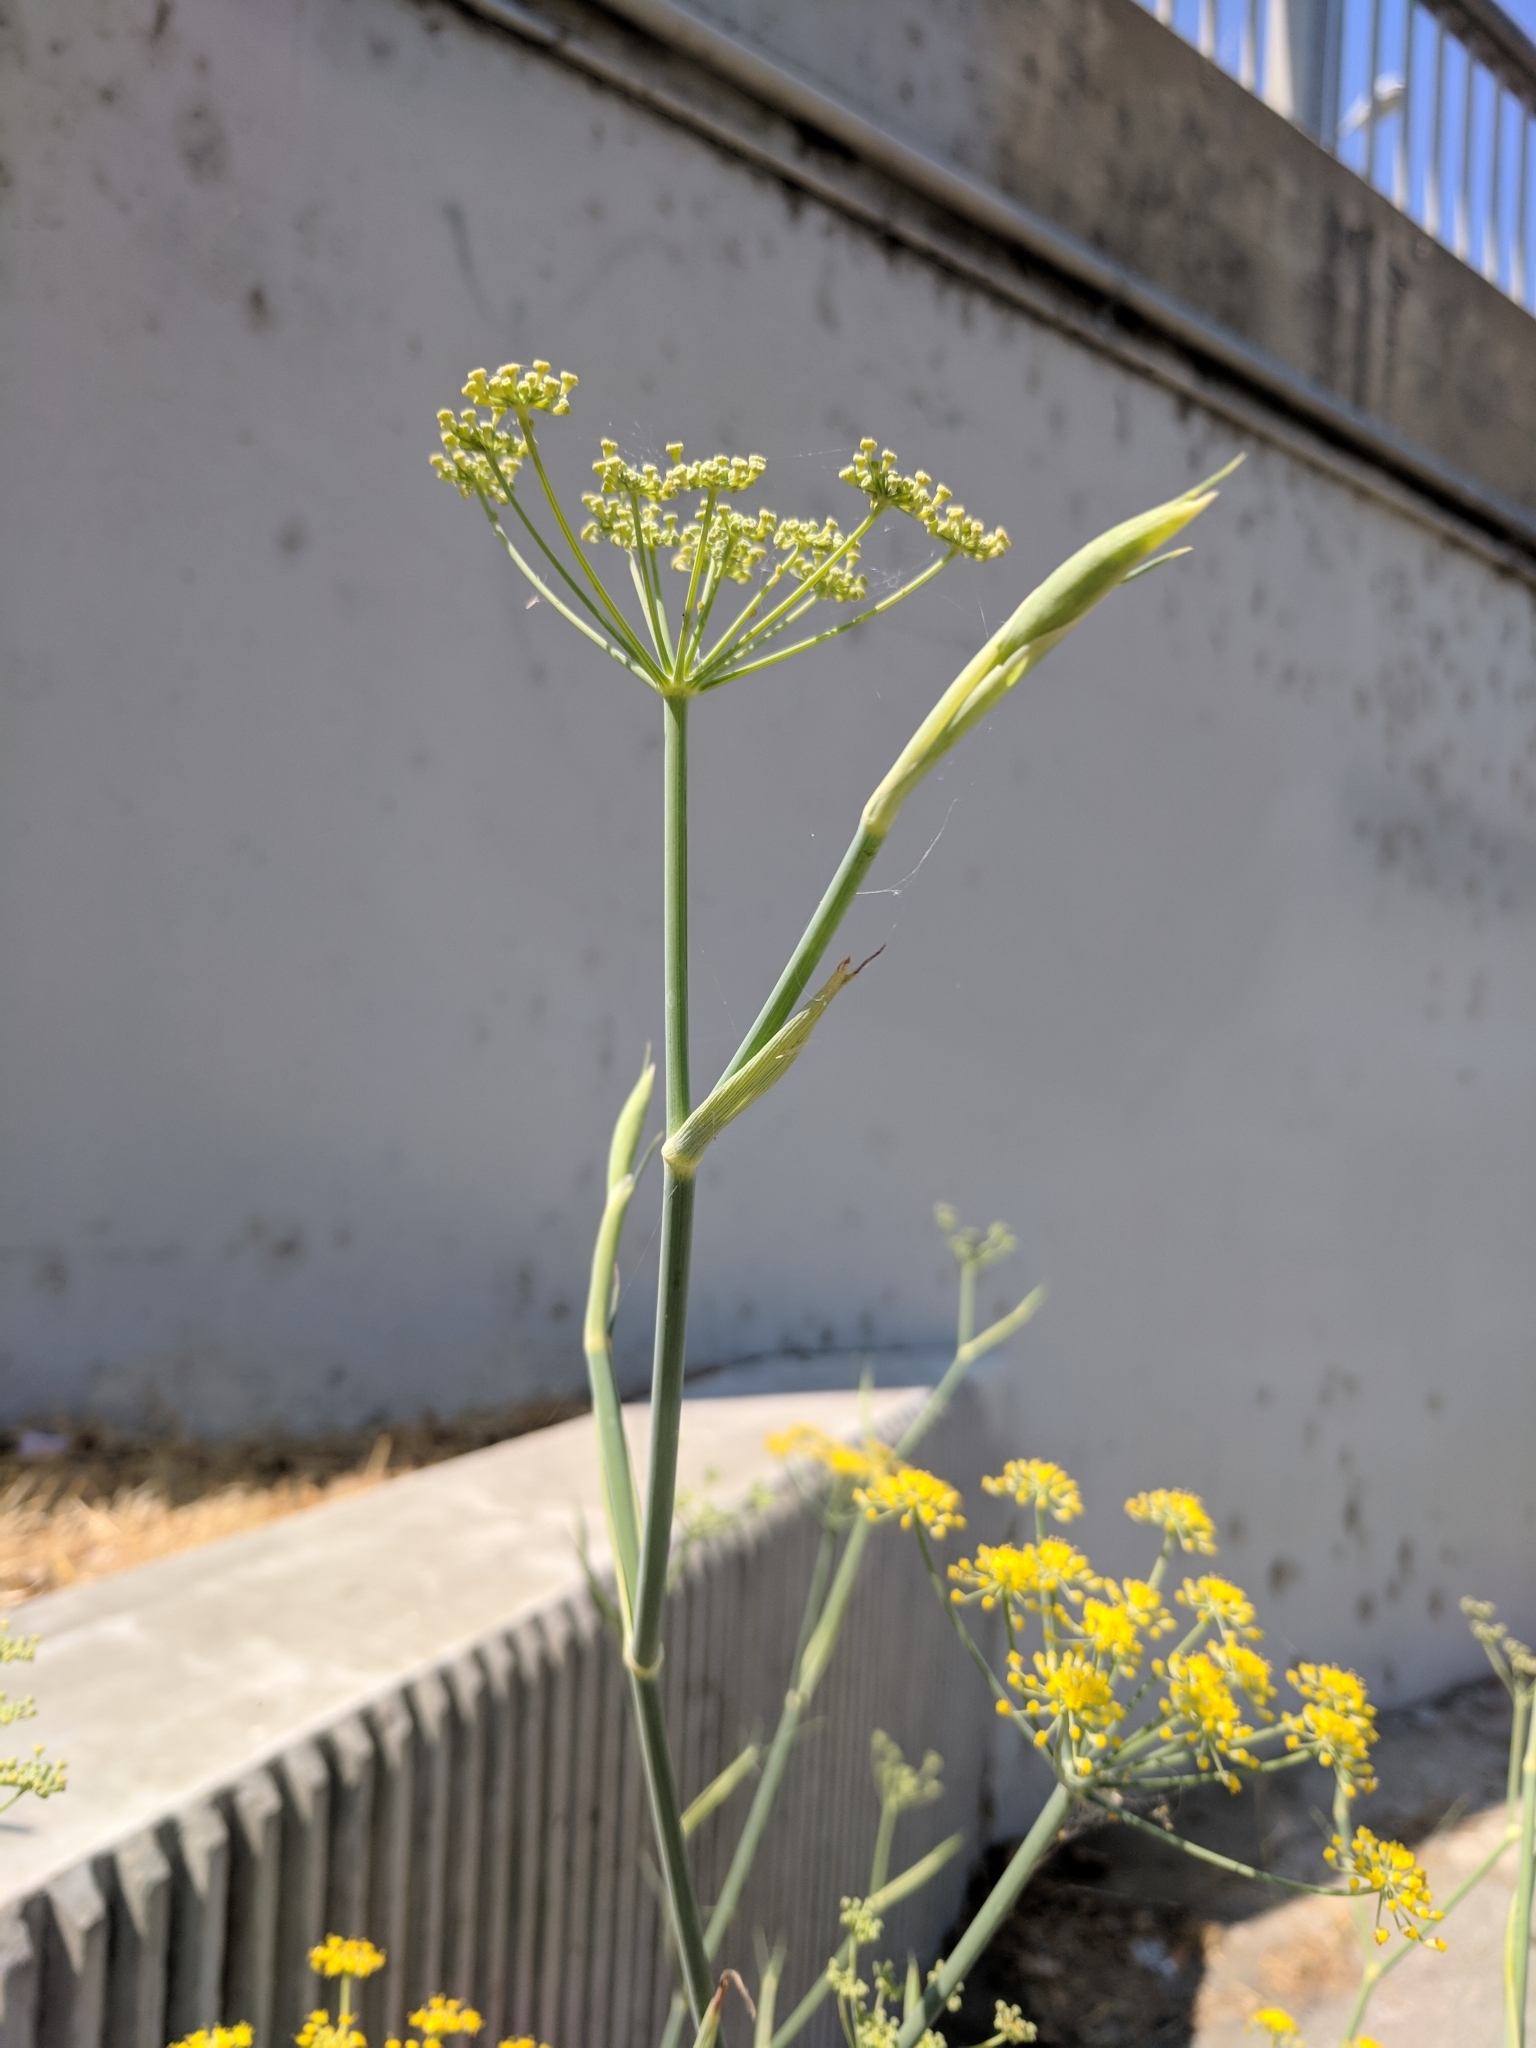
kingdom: Plantae
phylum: Tracheophyta
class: Magnoliopsida
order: Apiales
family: Apiaceae
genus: Foeniculum
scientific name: Foeniculum vulgare
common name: Fennel
